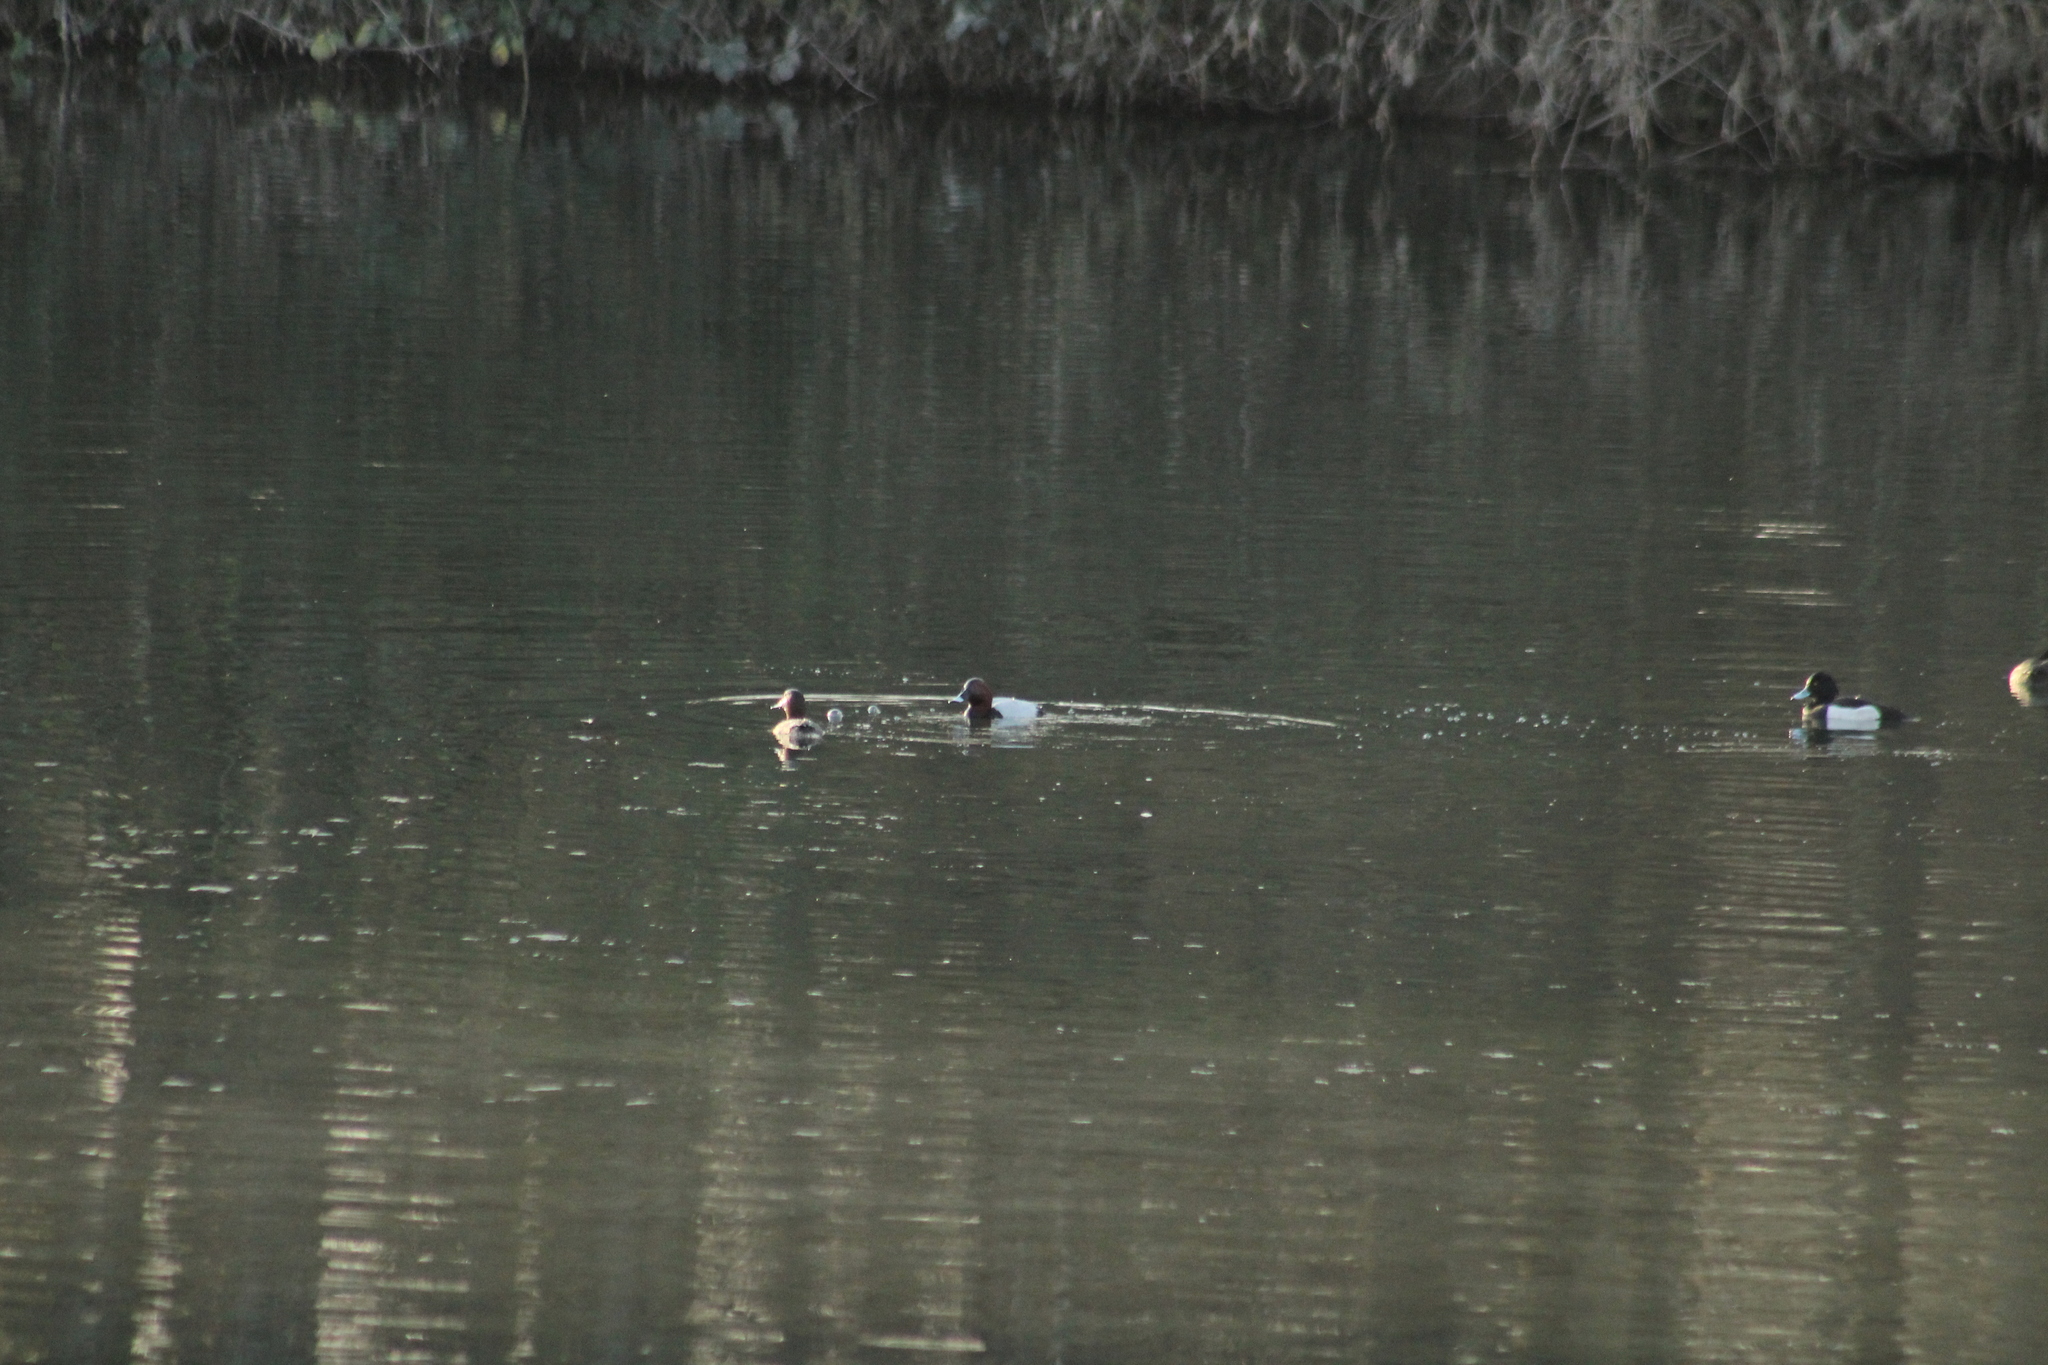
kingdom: Animalia
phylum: Chordata
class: Aves
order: Anseriformes
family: Anatidae
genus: Aythya
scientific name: Aythya ferina
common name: Common pochard
